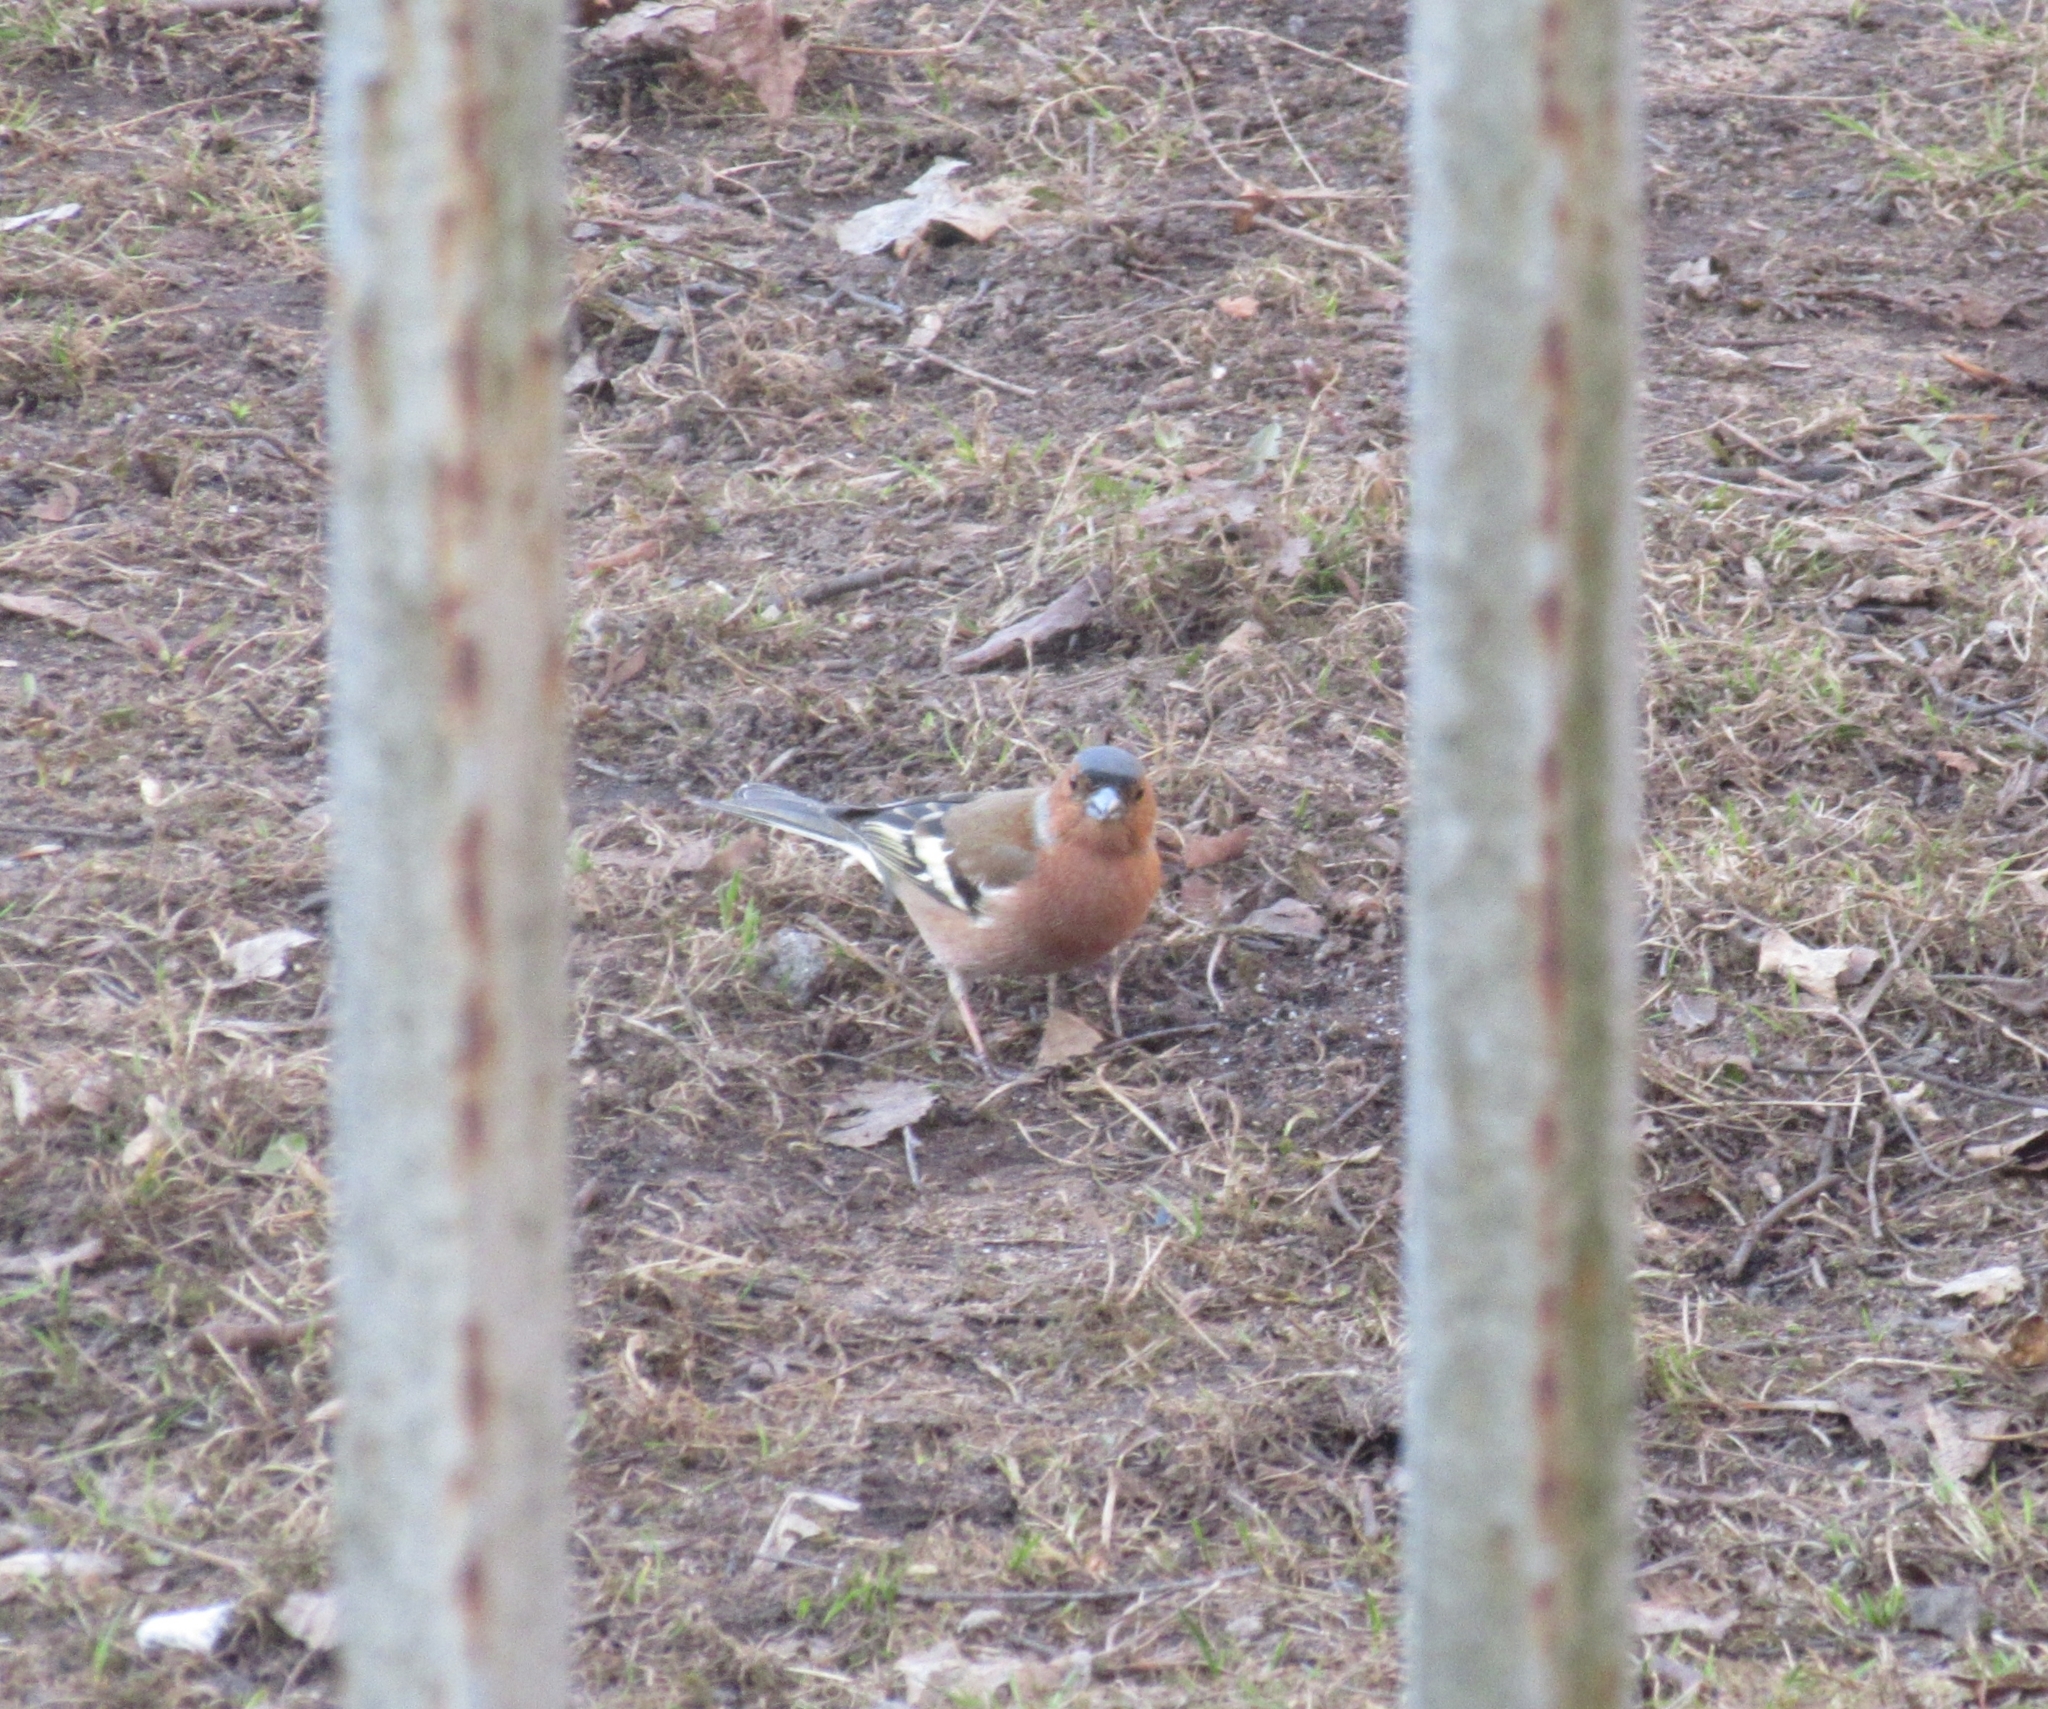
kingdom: Animalia
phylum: Chordata
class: Aves
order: Passeriformes
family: Fringillidae
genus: Fringilla
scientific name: Fringilla coelebs
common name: Common chaffinch
